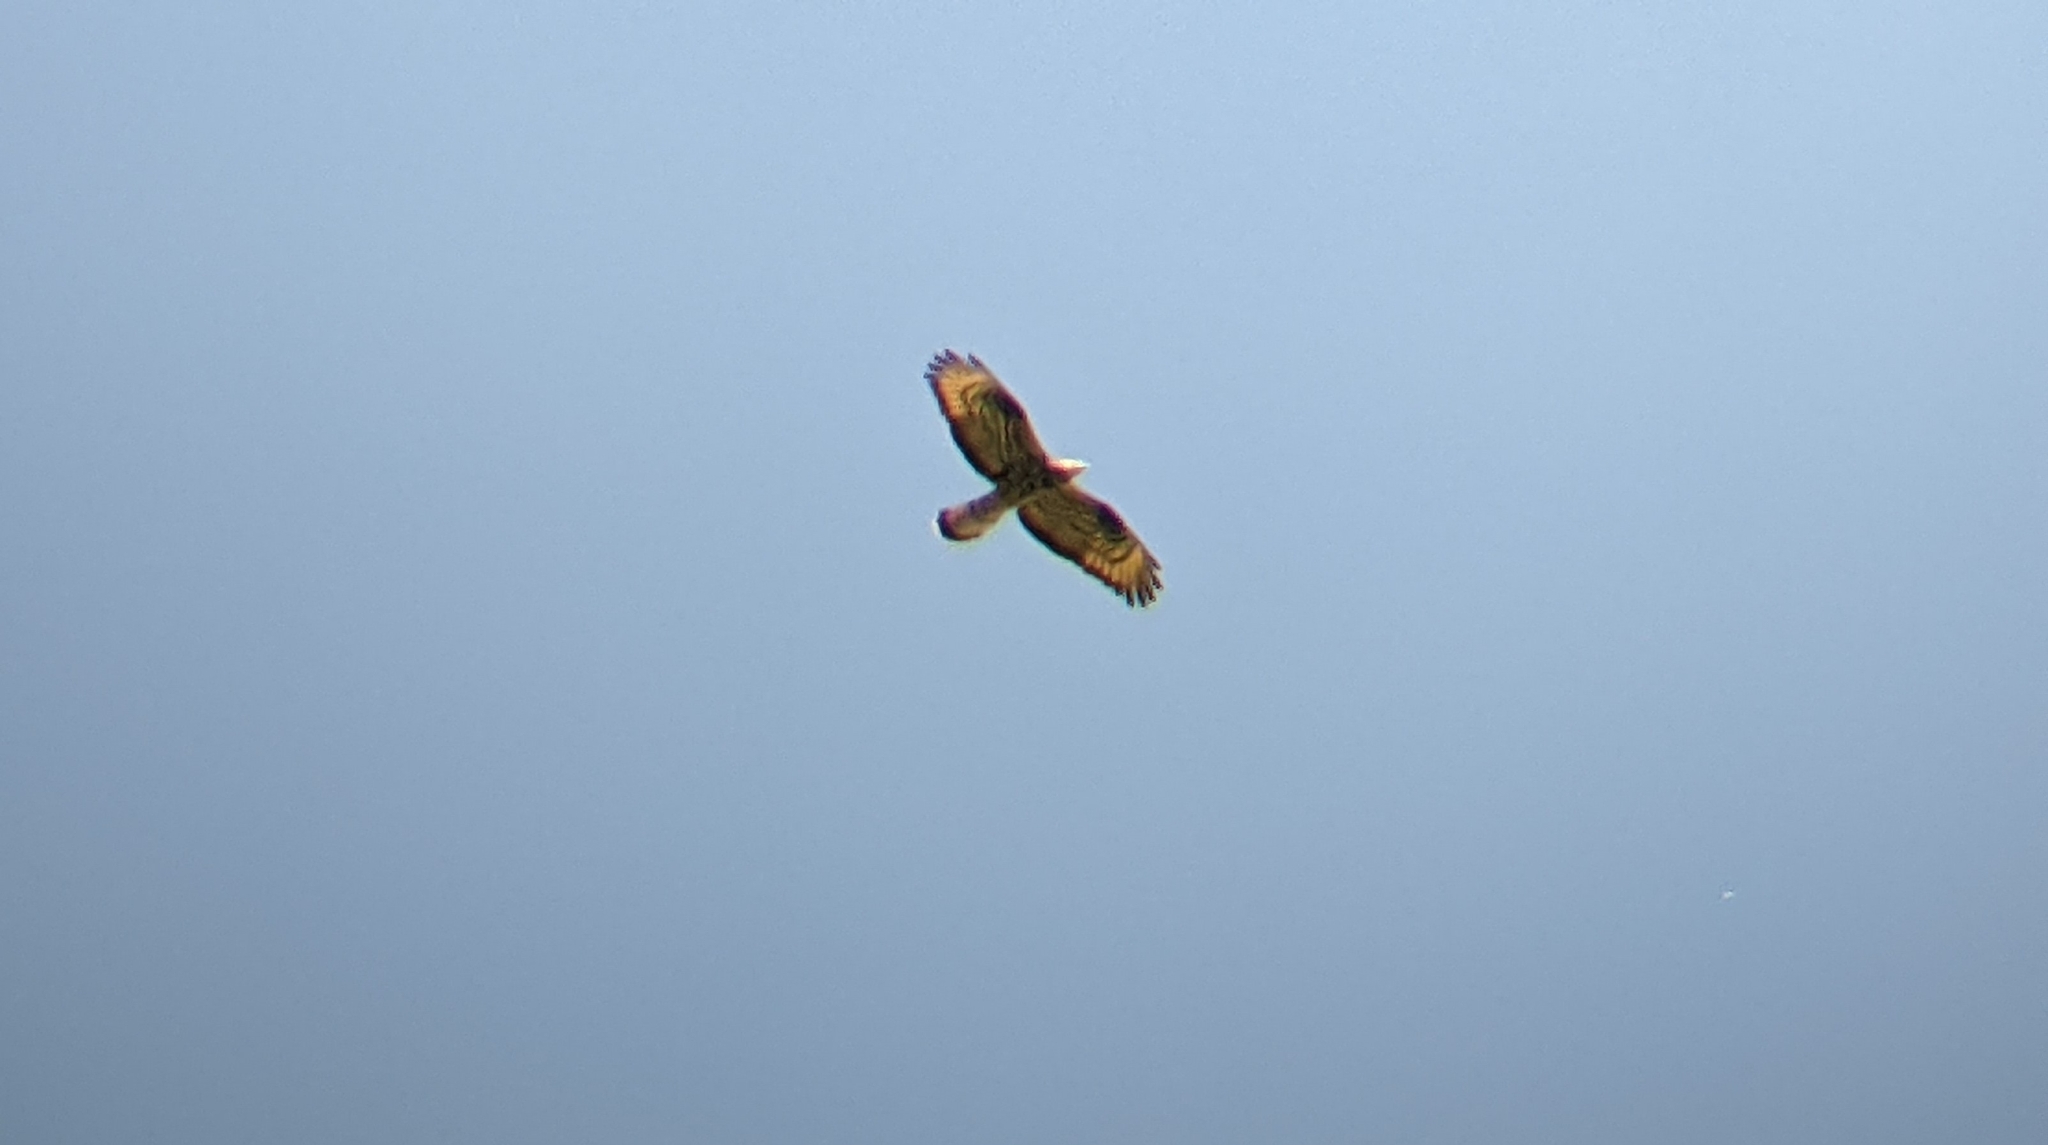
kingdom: Animalia
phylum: Chordata
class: Aves
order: Accipitriformes
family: Accipitridae
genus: Pernis
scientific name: Pernis apivorus
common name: European honey buzzard
